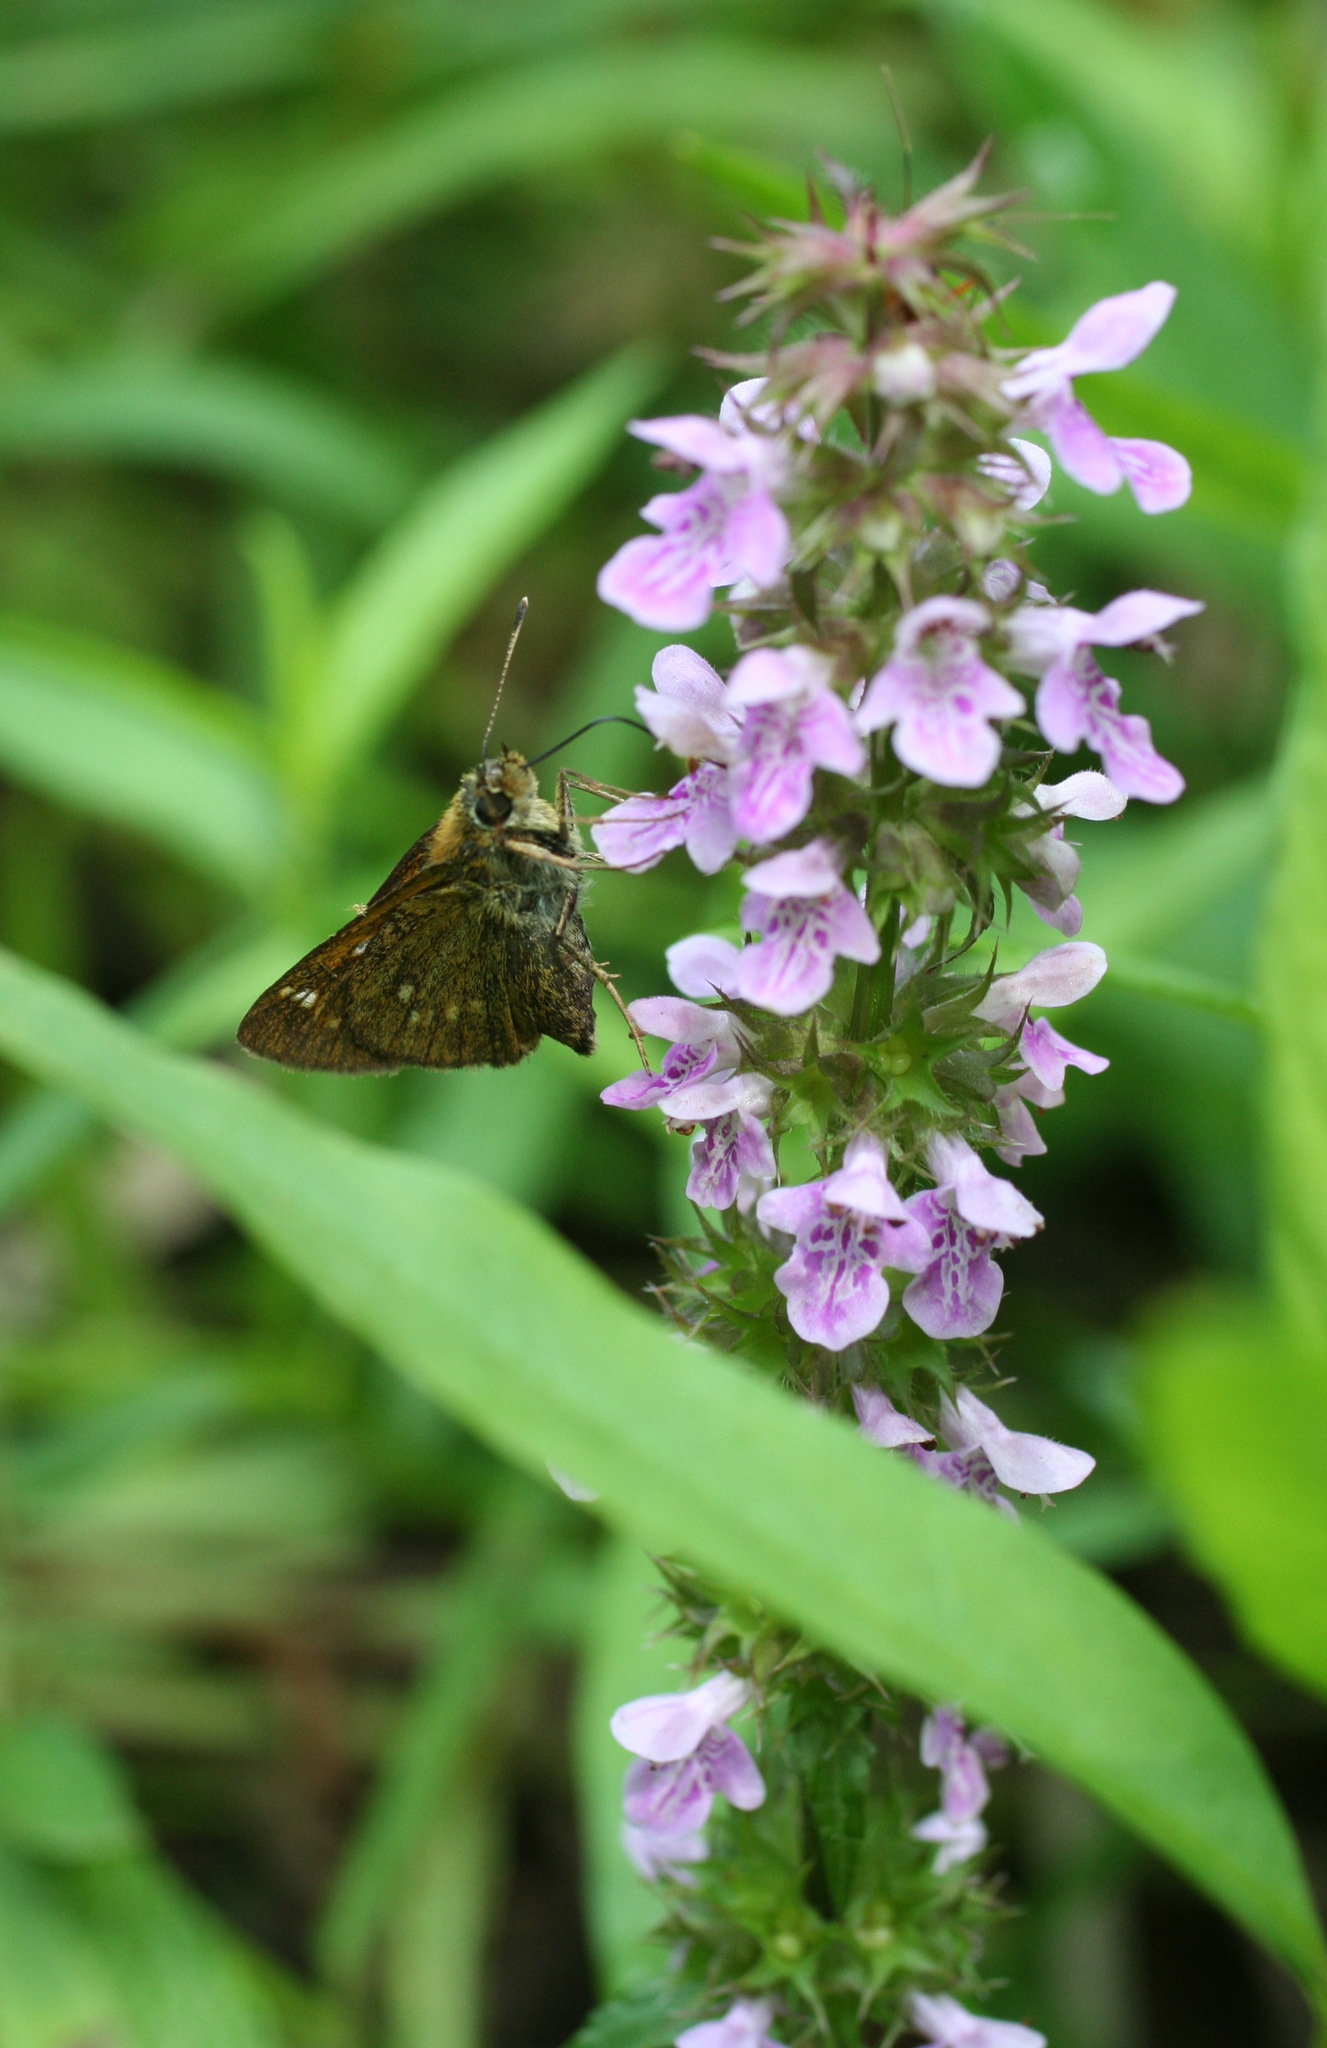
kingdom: Plantae
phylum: Tracheophyta
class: Magnoliopsida
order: Lamiales
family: Lamiaceae
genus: Stachys
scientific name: Stachys aspera
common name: Hyssopleaf hedgenettle
